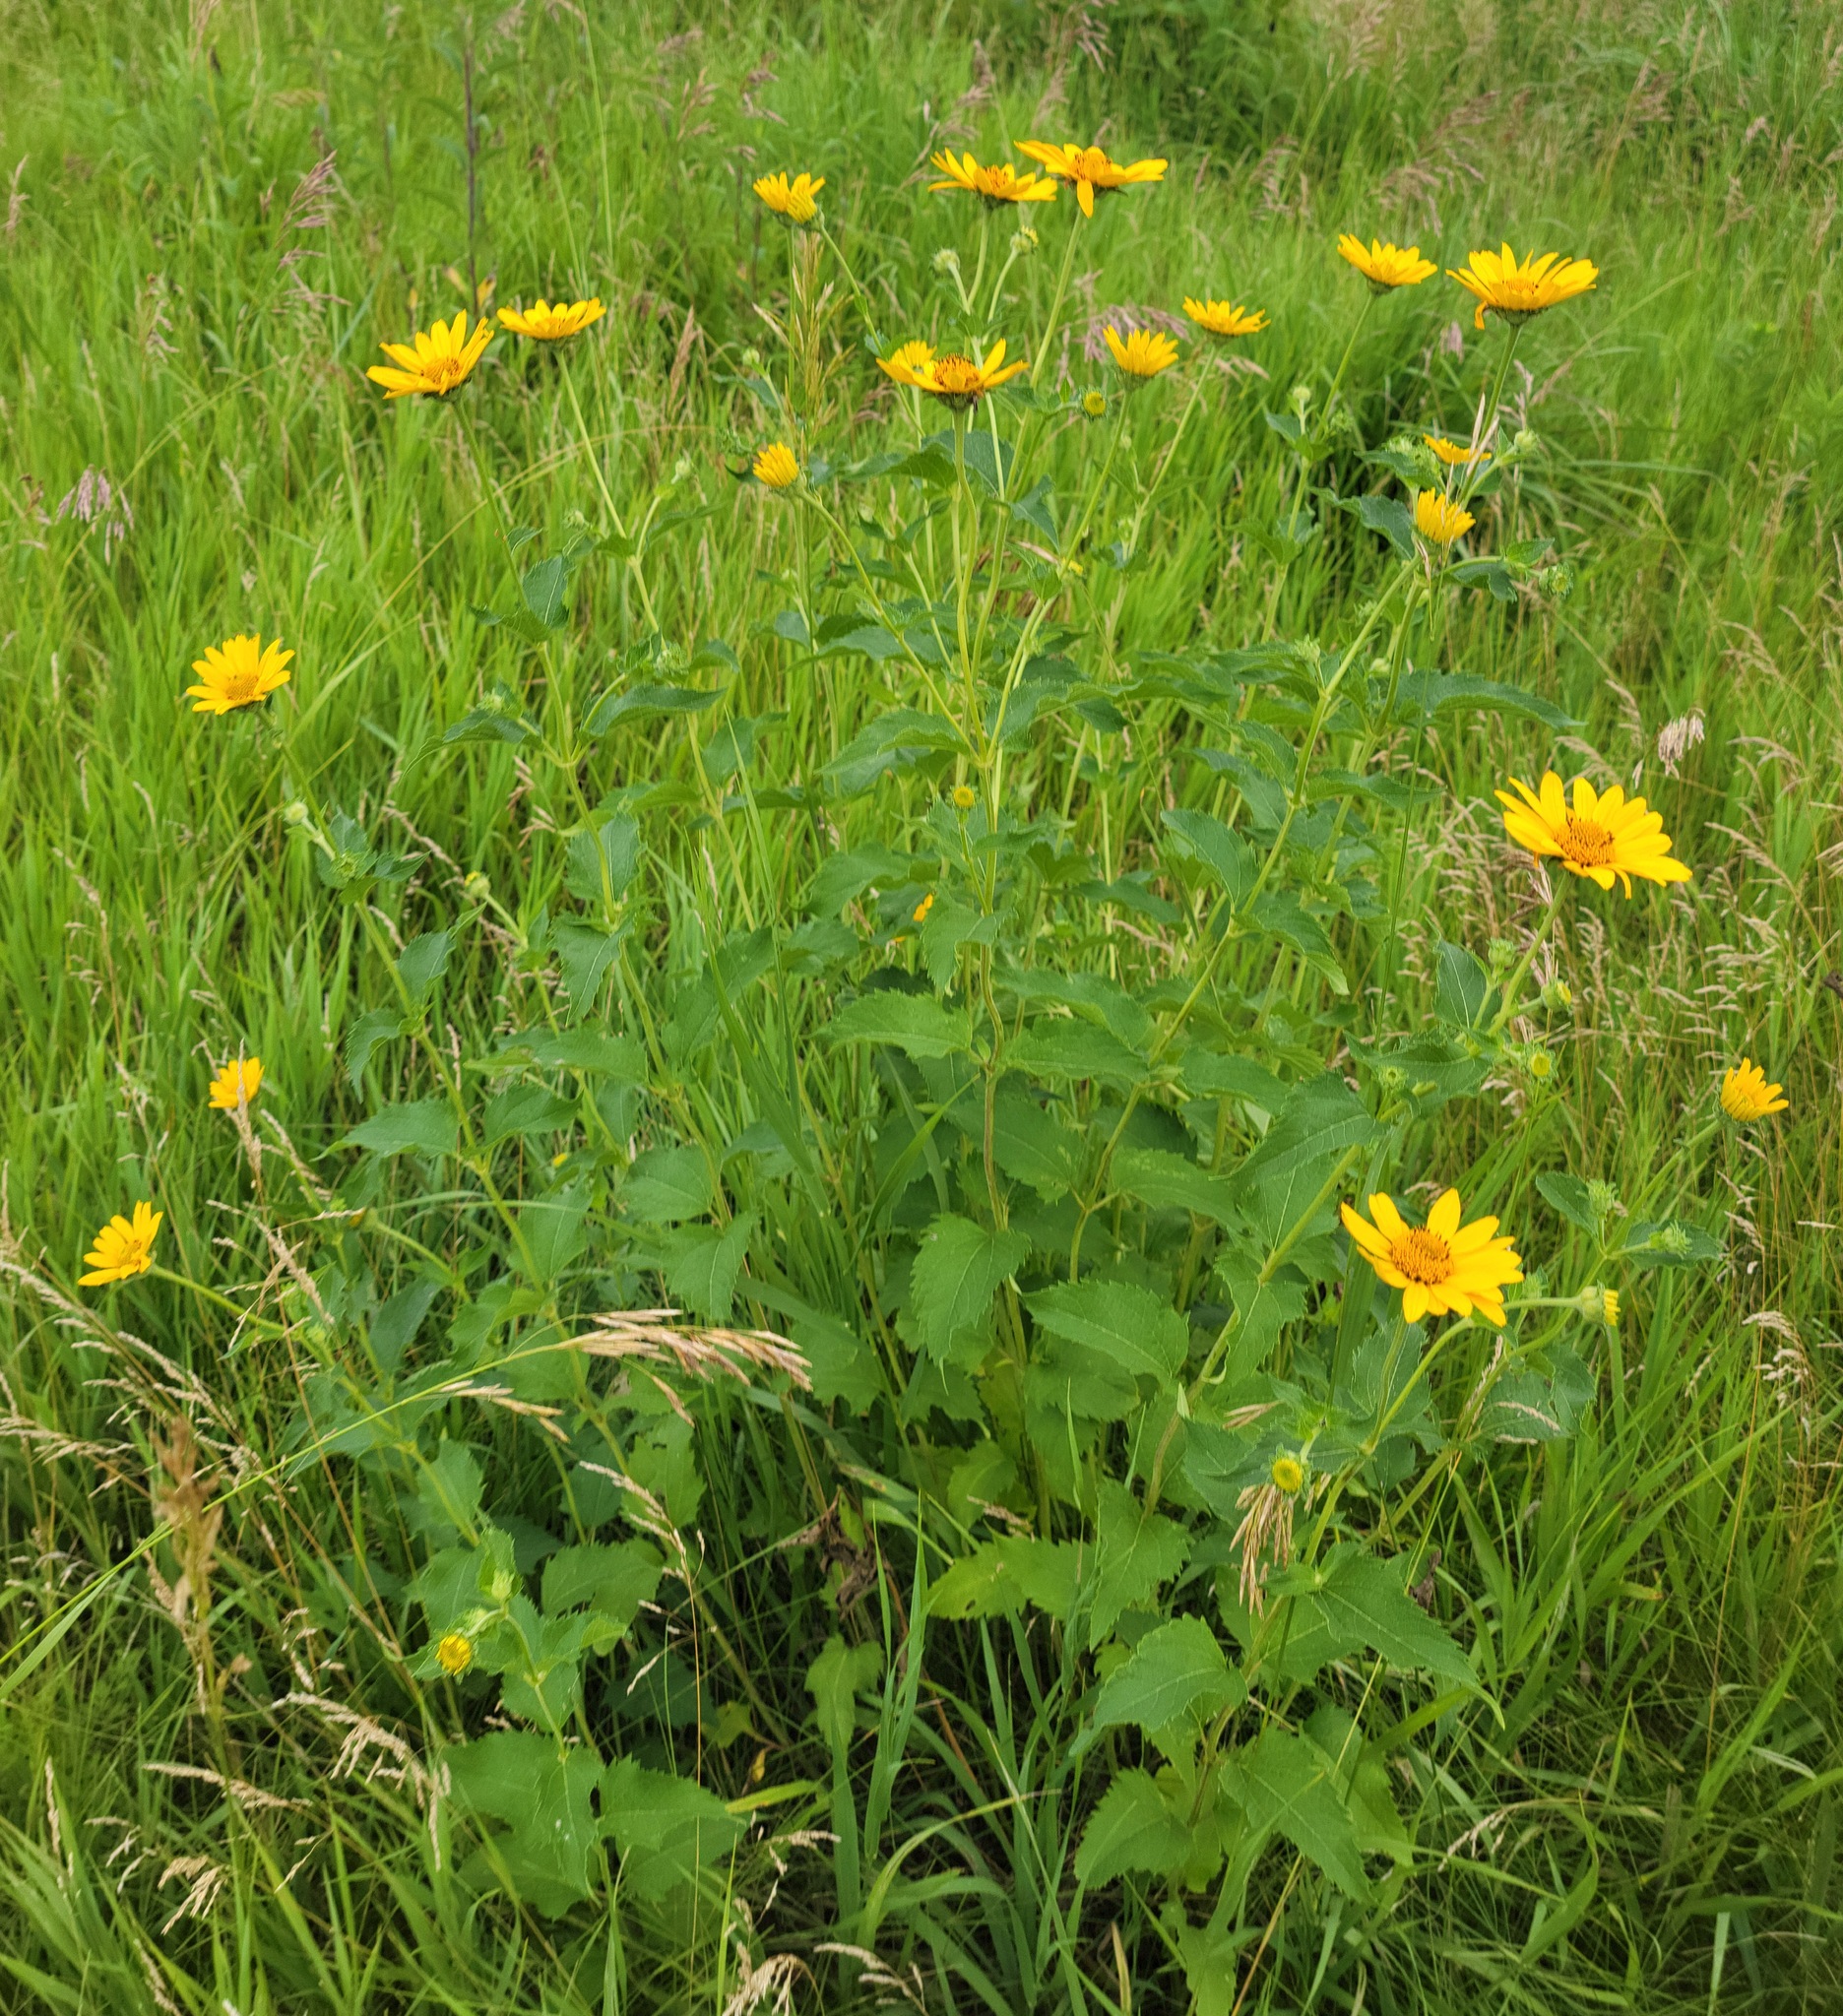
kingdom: Plantae
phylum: Tracheophyta
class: Magnoliopsida
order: Asterales
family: Asteraceae
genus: Heliopsis
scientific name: Heliopsis helianthoides
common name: False sunflower
